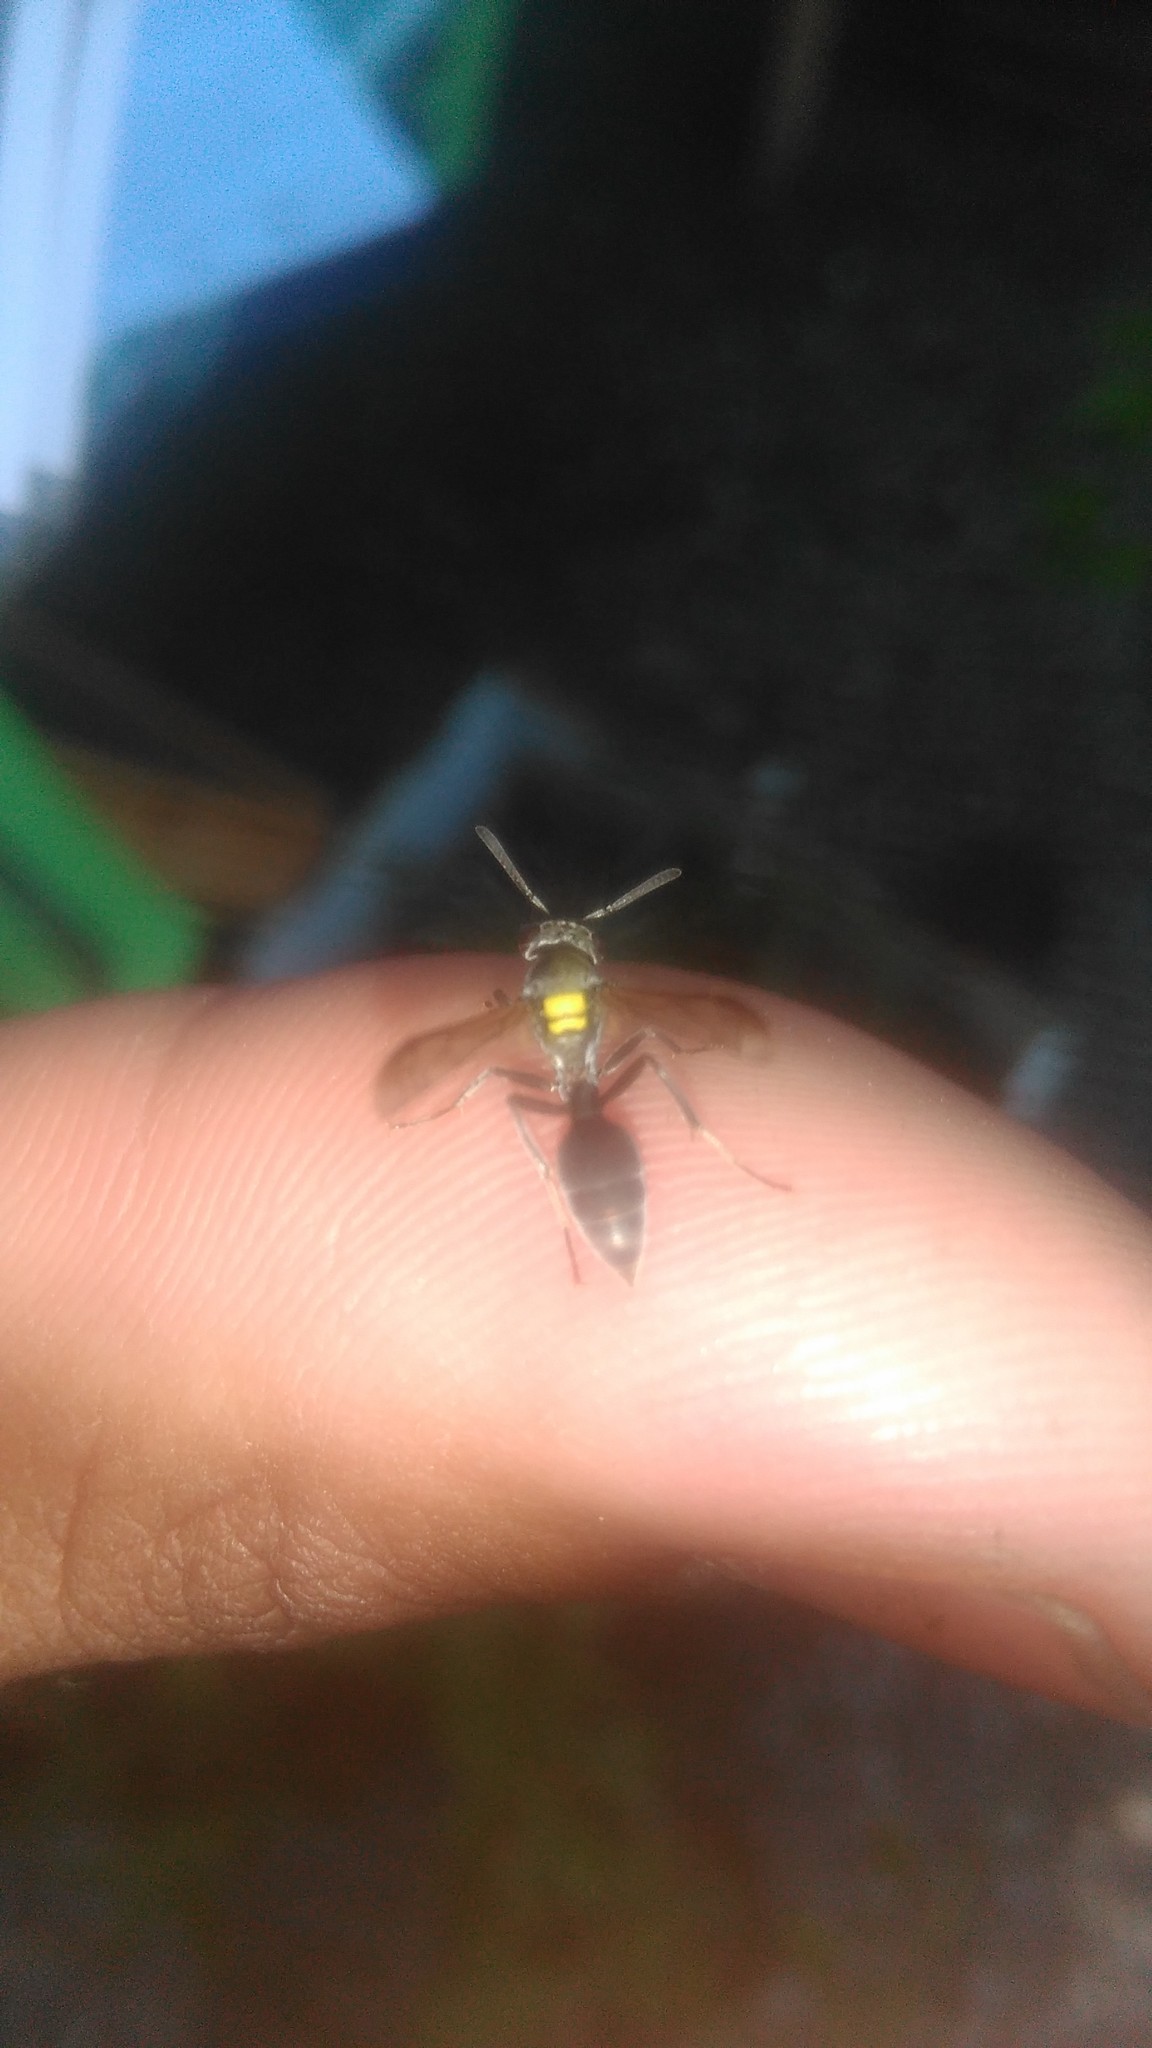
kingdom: Animalia
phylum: Arthropoda
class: Insecta
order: Hymenoptera
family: Eumenidae
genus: Polybia
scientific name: Polybia scutellaris
